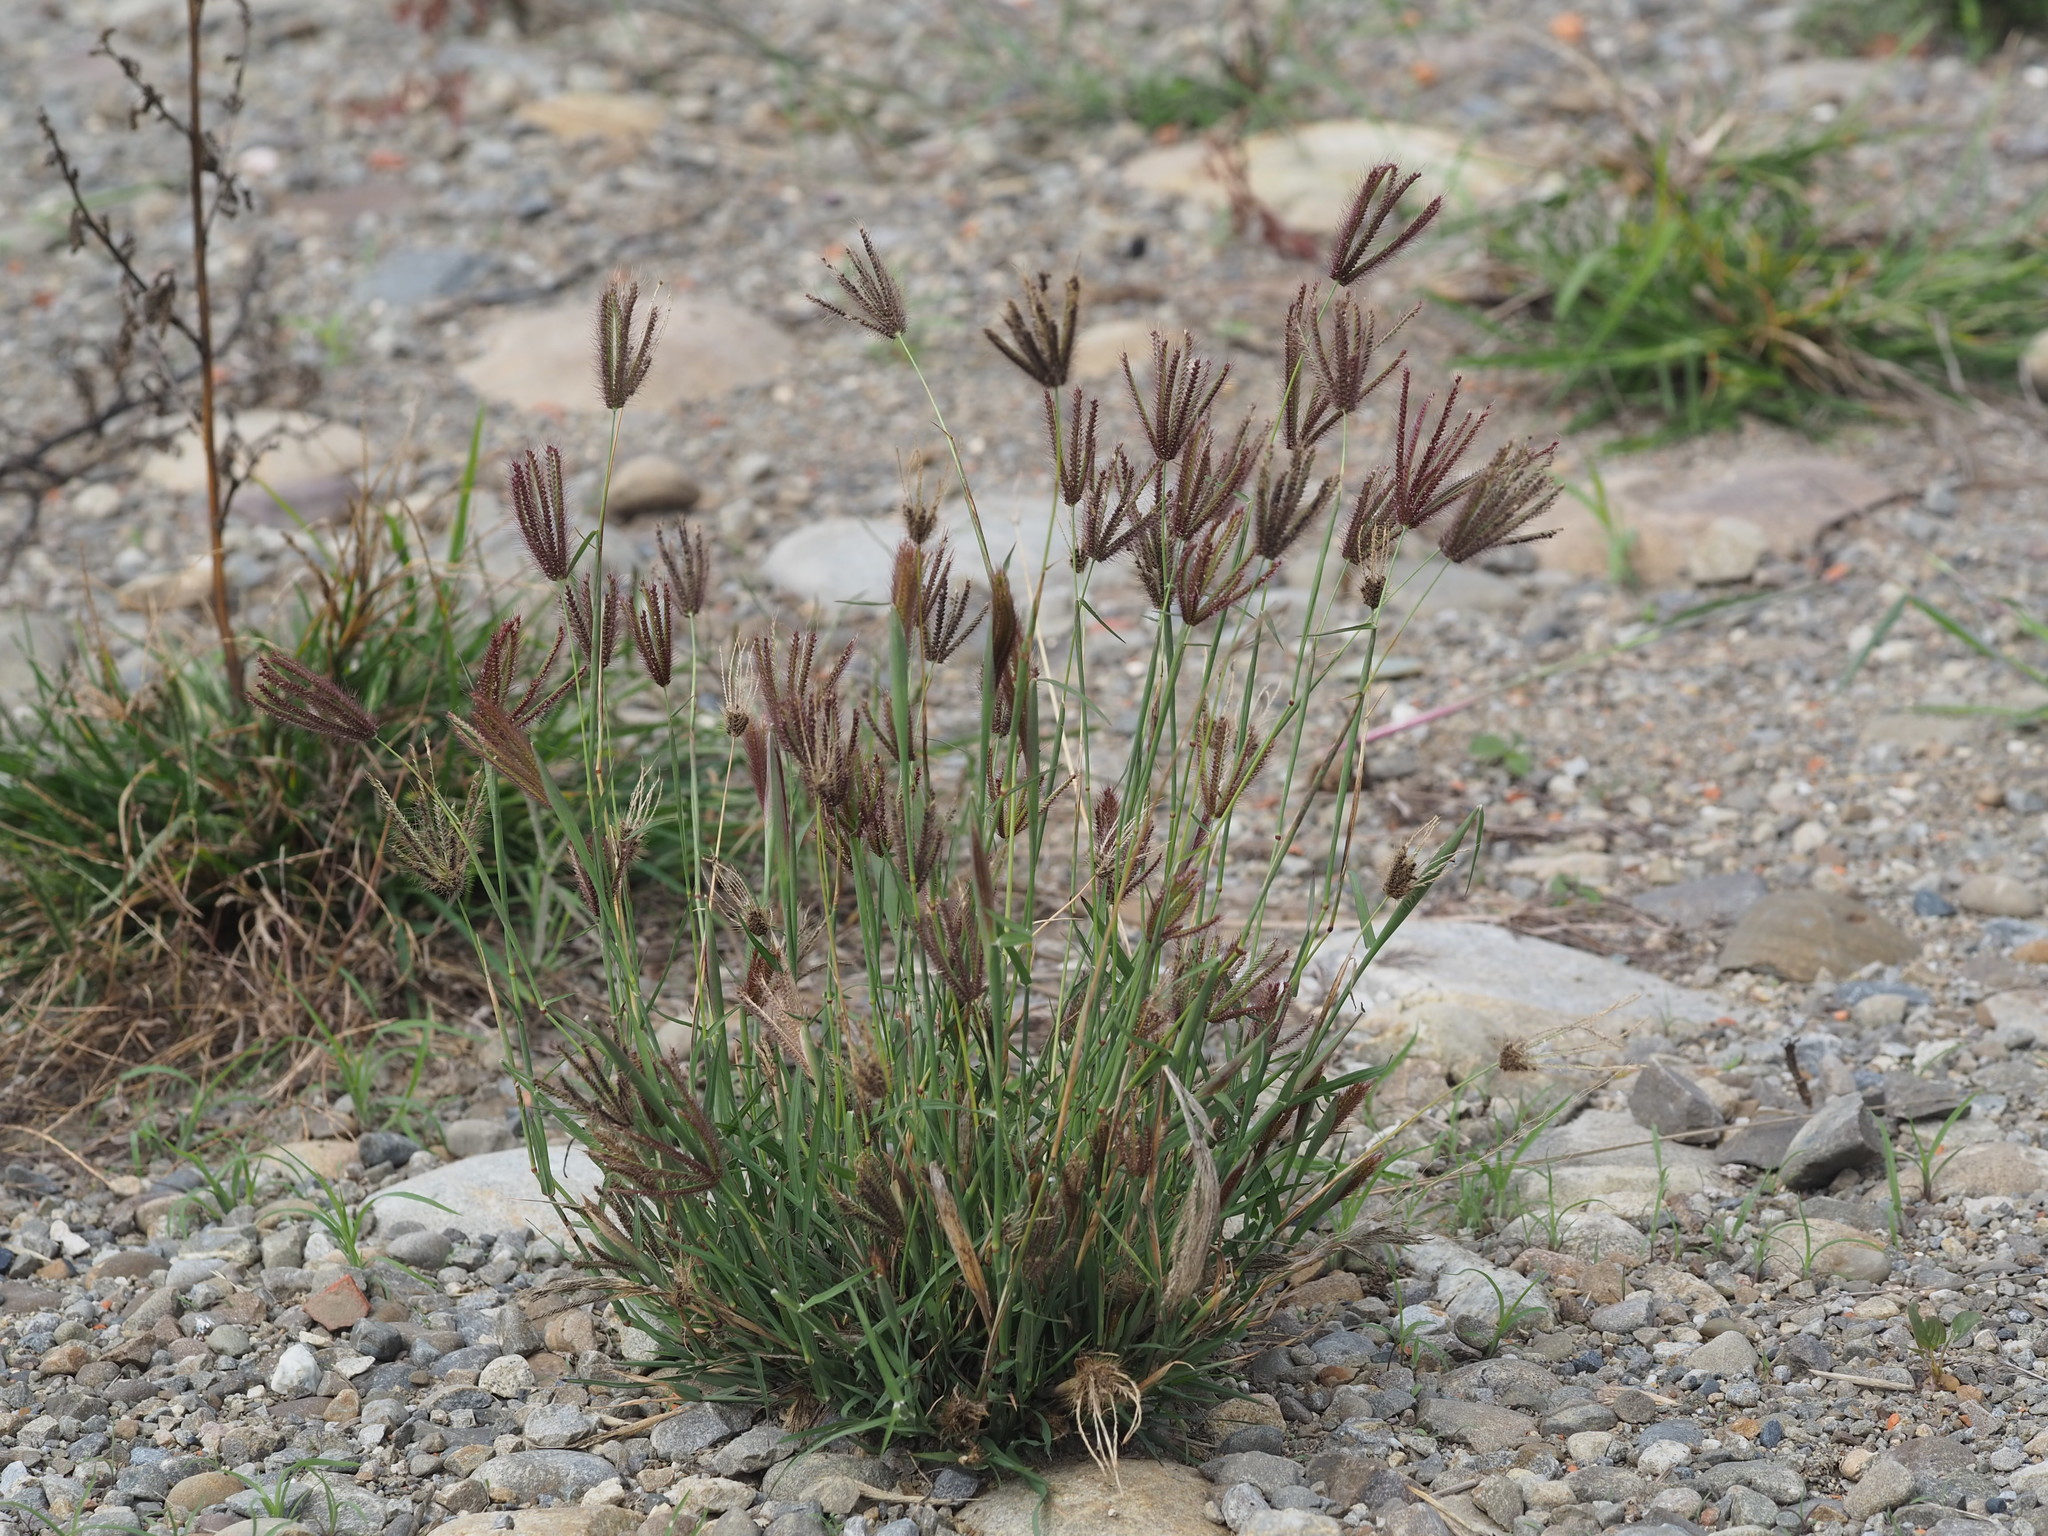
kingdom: Plantae
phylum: Tracheophyta
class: Liliopsida
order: Poales
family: Poaceae
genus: Chloris
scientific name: Chloris barbata
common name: Swollen fingergrass
